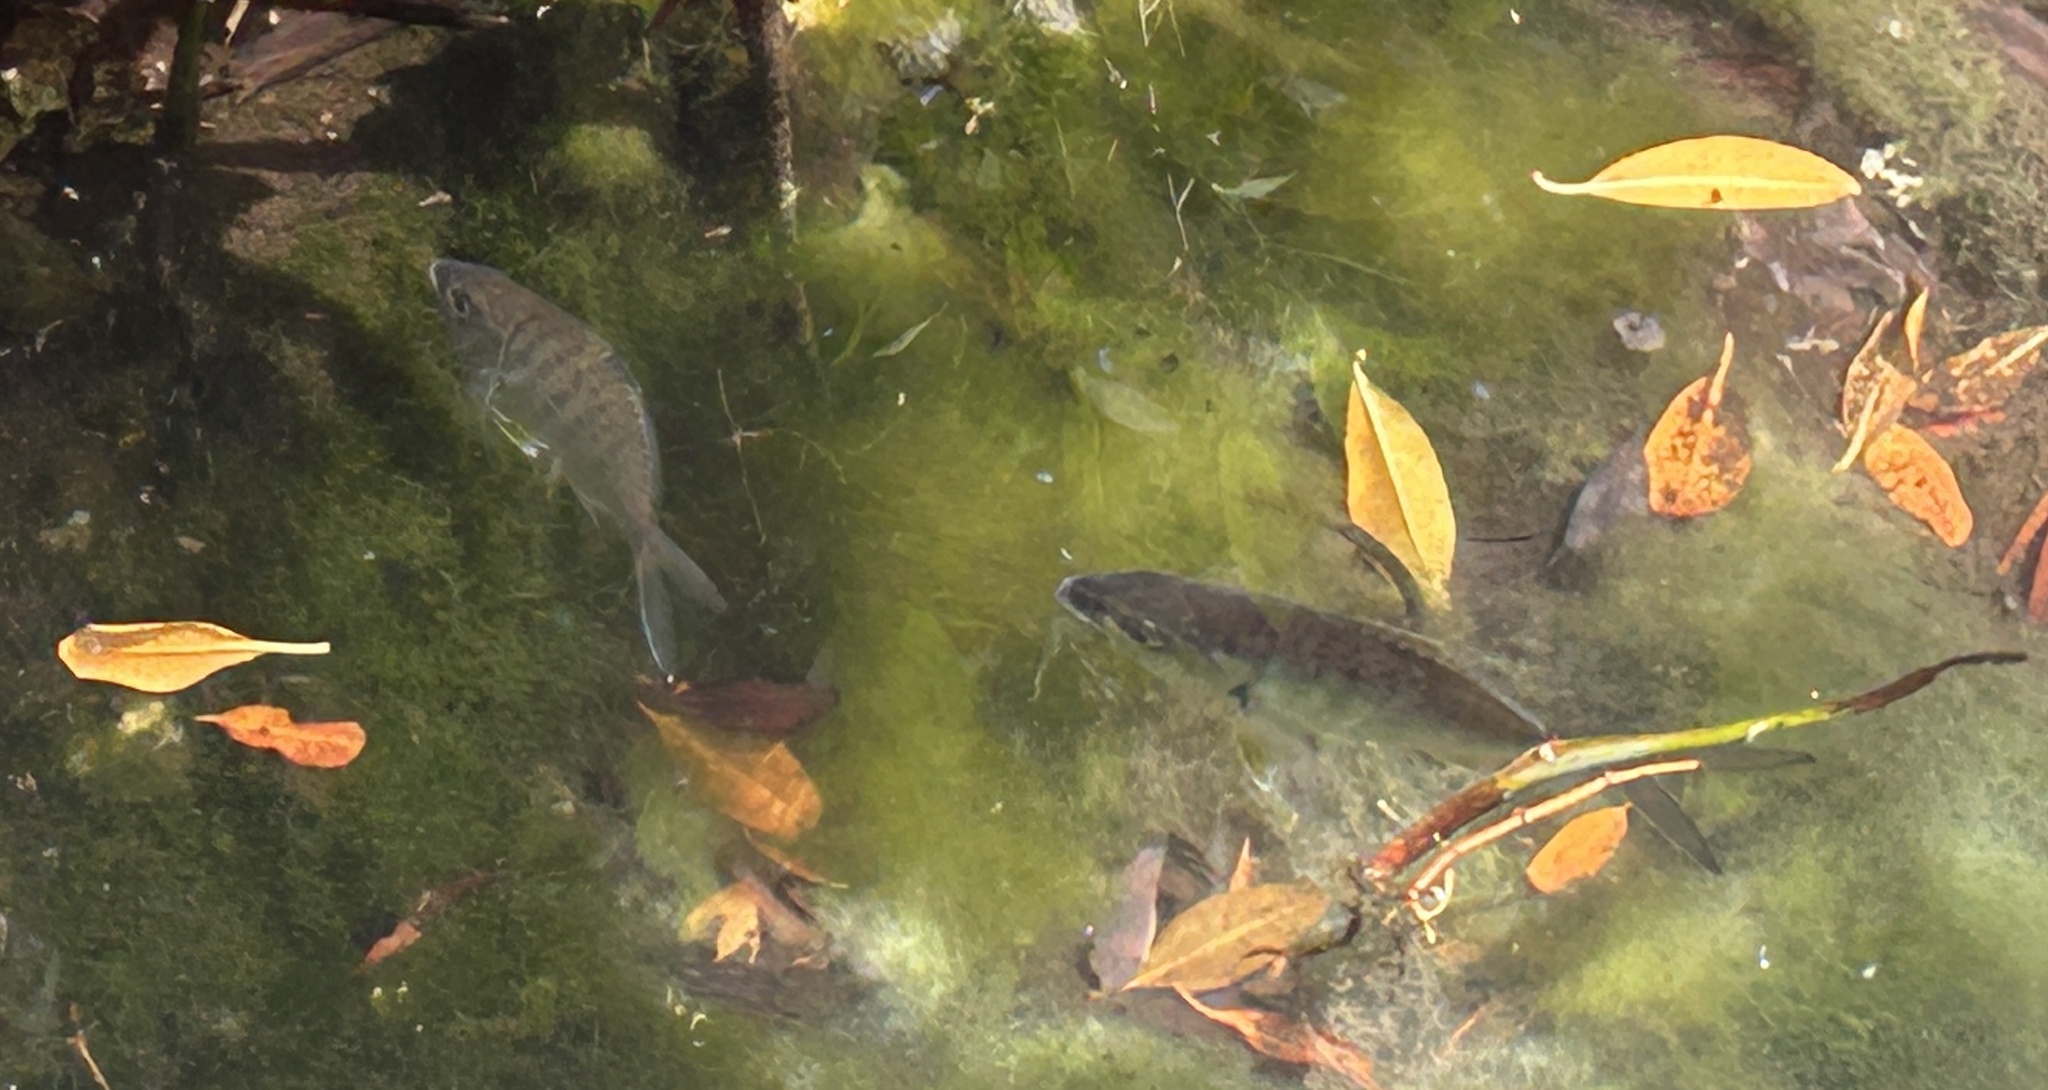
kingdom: Animalia
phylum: Chordata
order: Perciformes
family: Gerreidae
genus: Gerres
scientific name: Gerres cinereus
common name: Hedow
